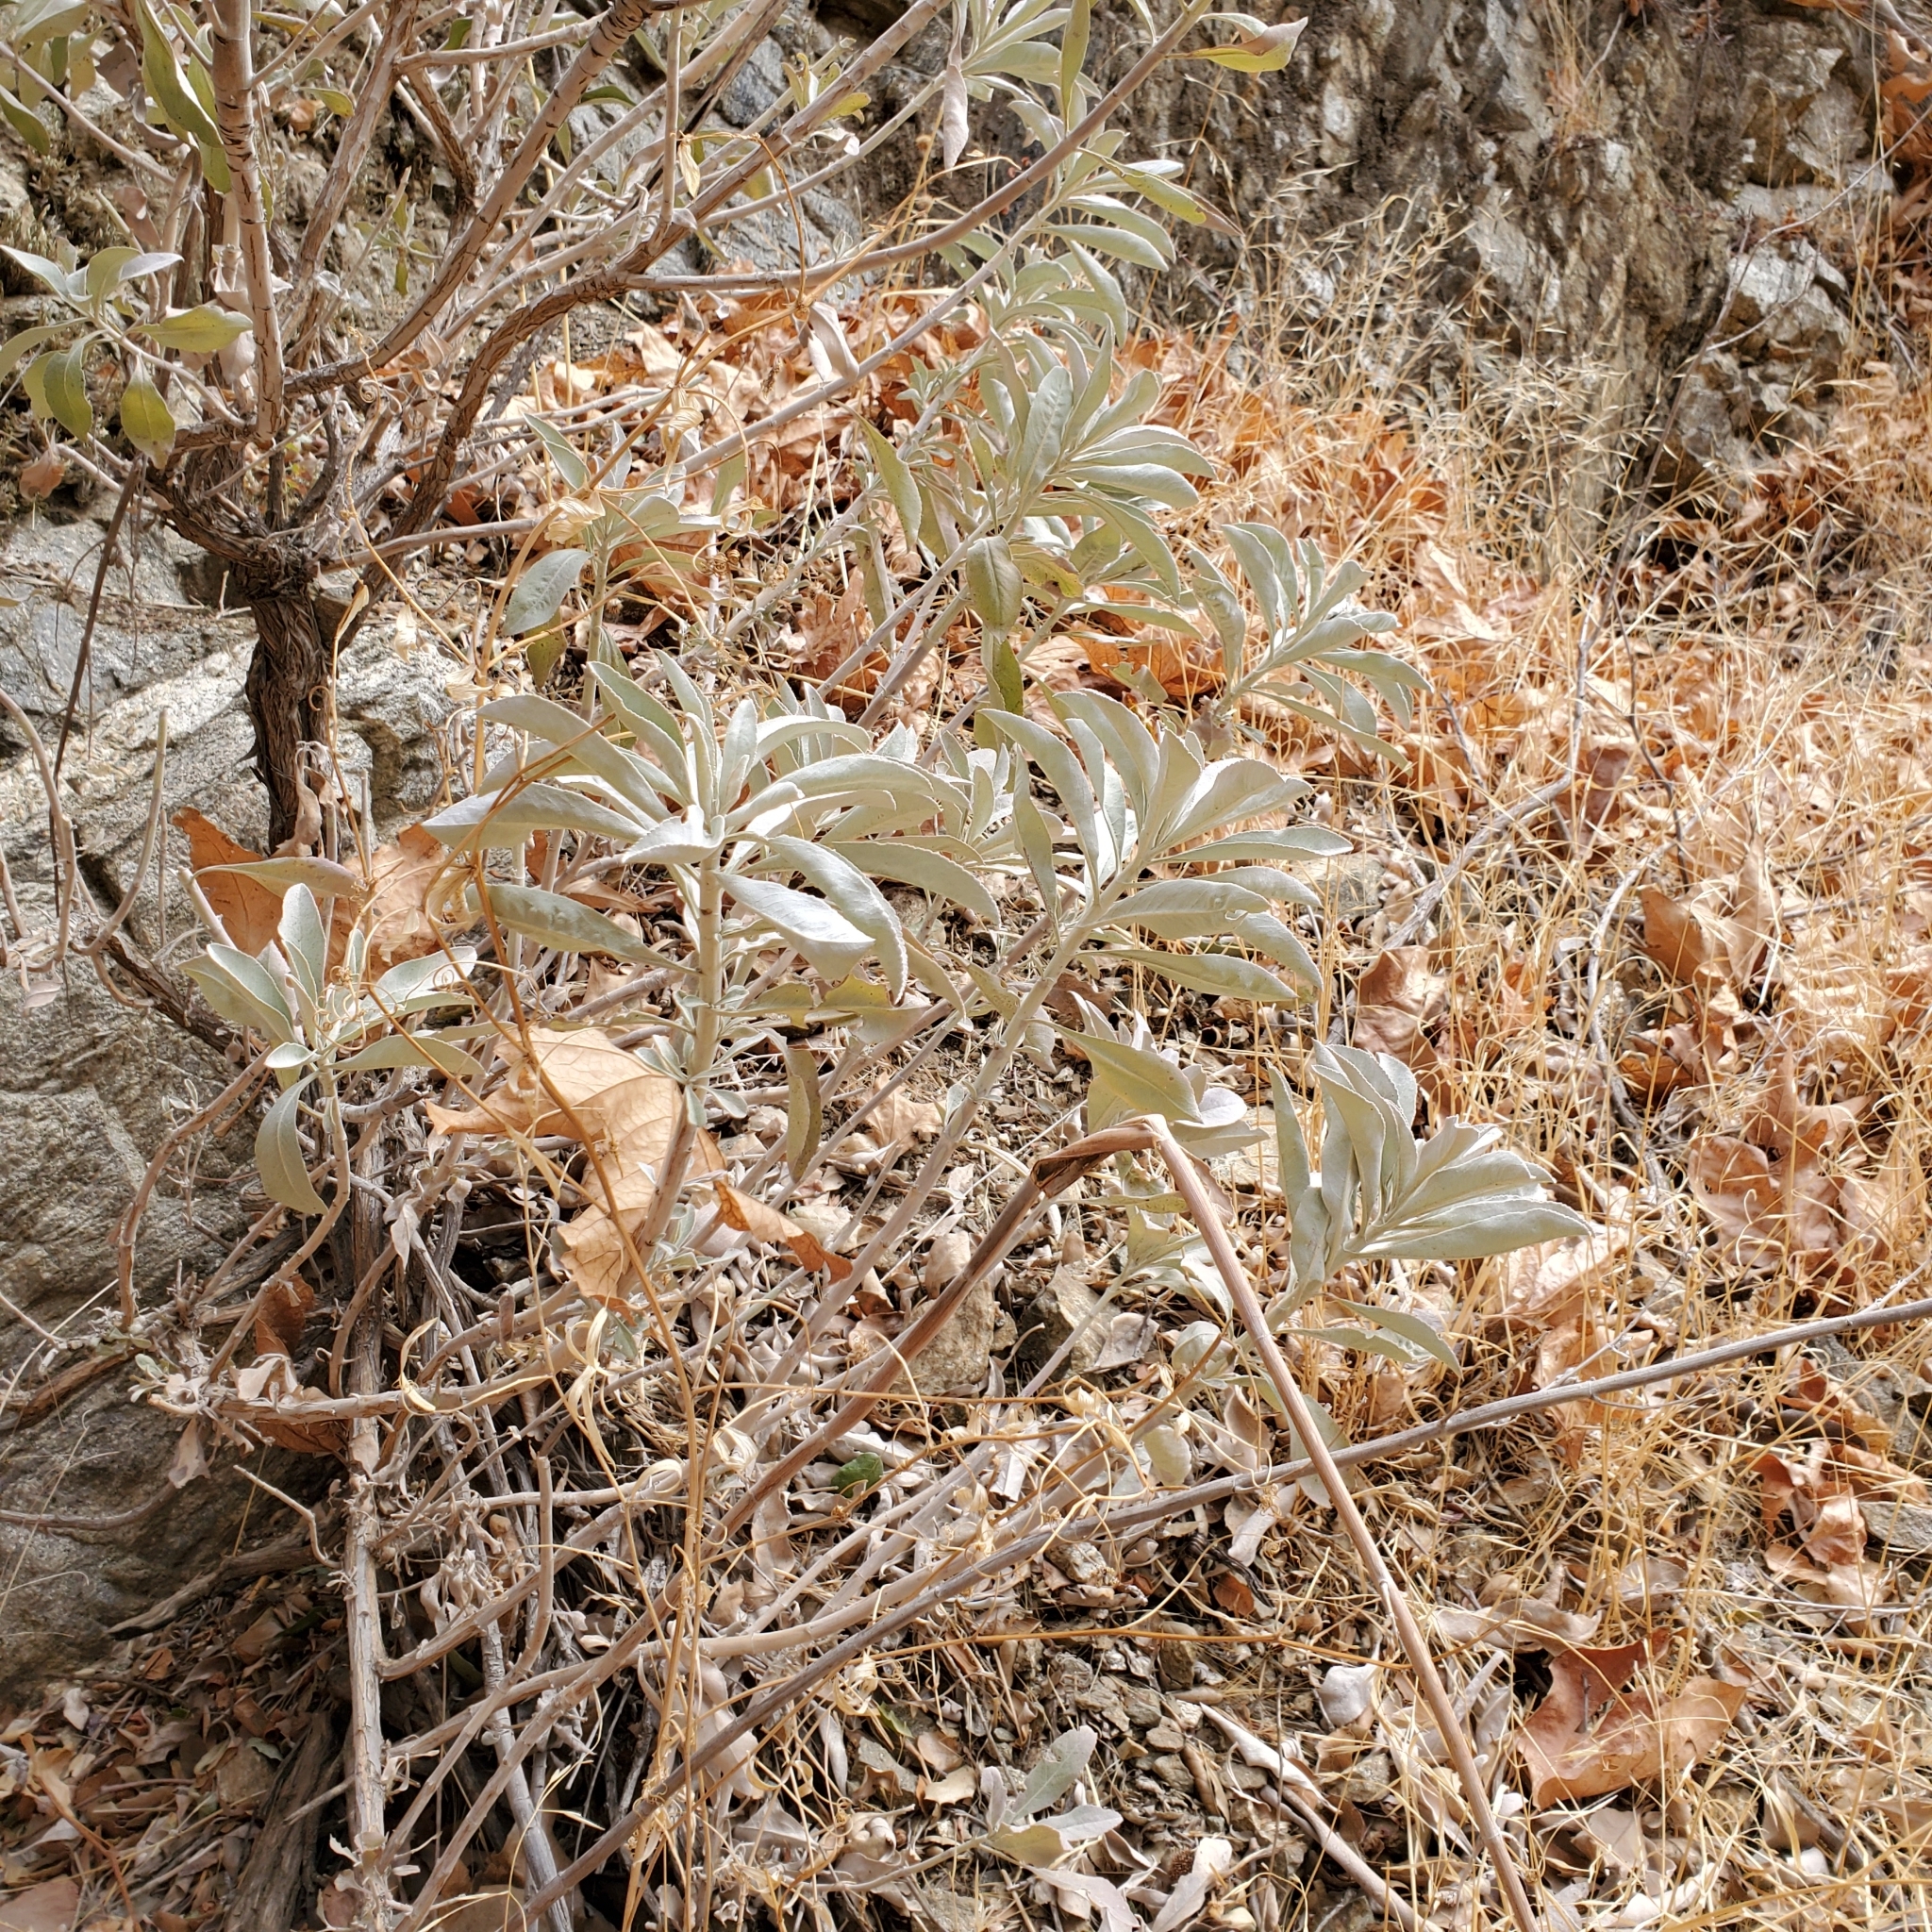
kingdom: Plantae
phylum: Tracheophyta
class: Magnoliopsida
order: Lamiales
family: Lamiaceae
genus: Salvia
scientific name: Salvia apiana
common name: White sage
